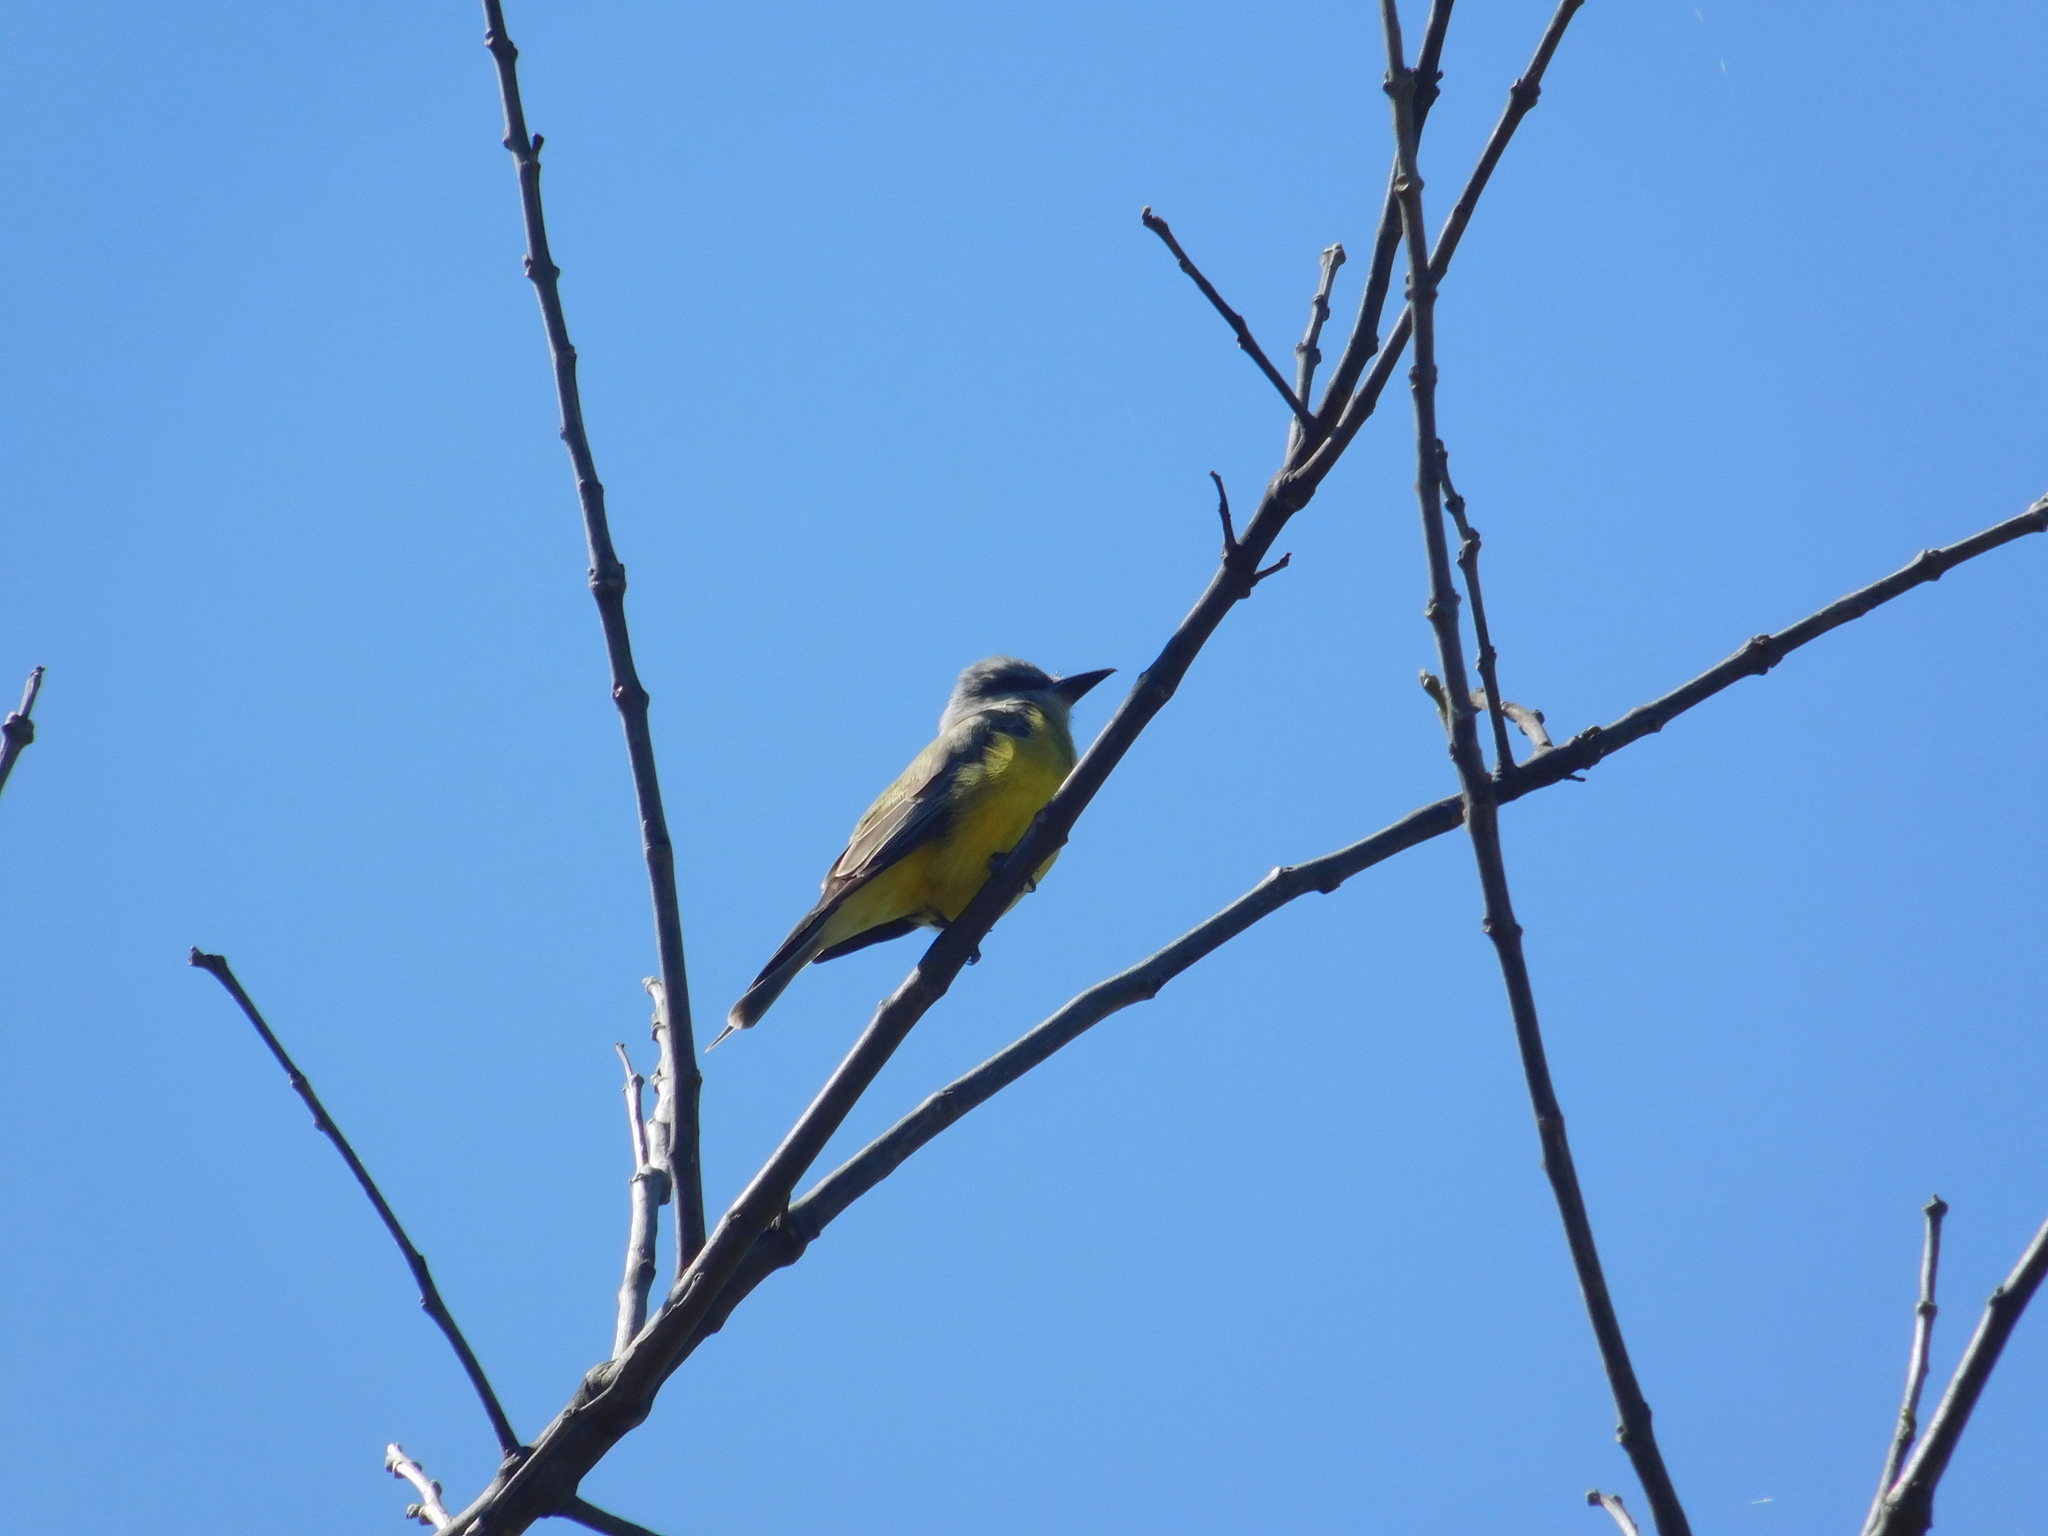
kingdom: Animalia
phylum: Chordata
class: Aves
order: Passeriformes
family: Tyrannidae
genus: Tyrannus
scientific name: Tyrannus melancholicus
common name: Tropical kingbird
